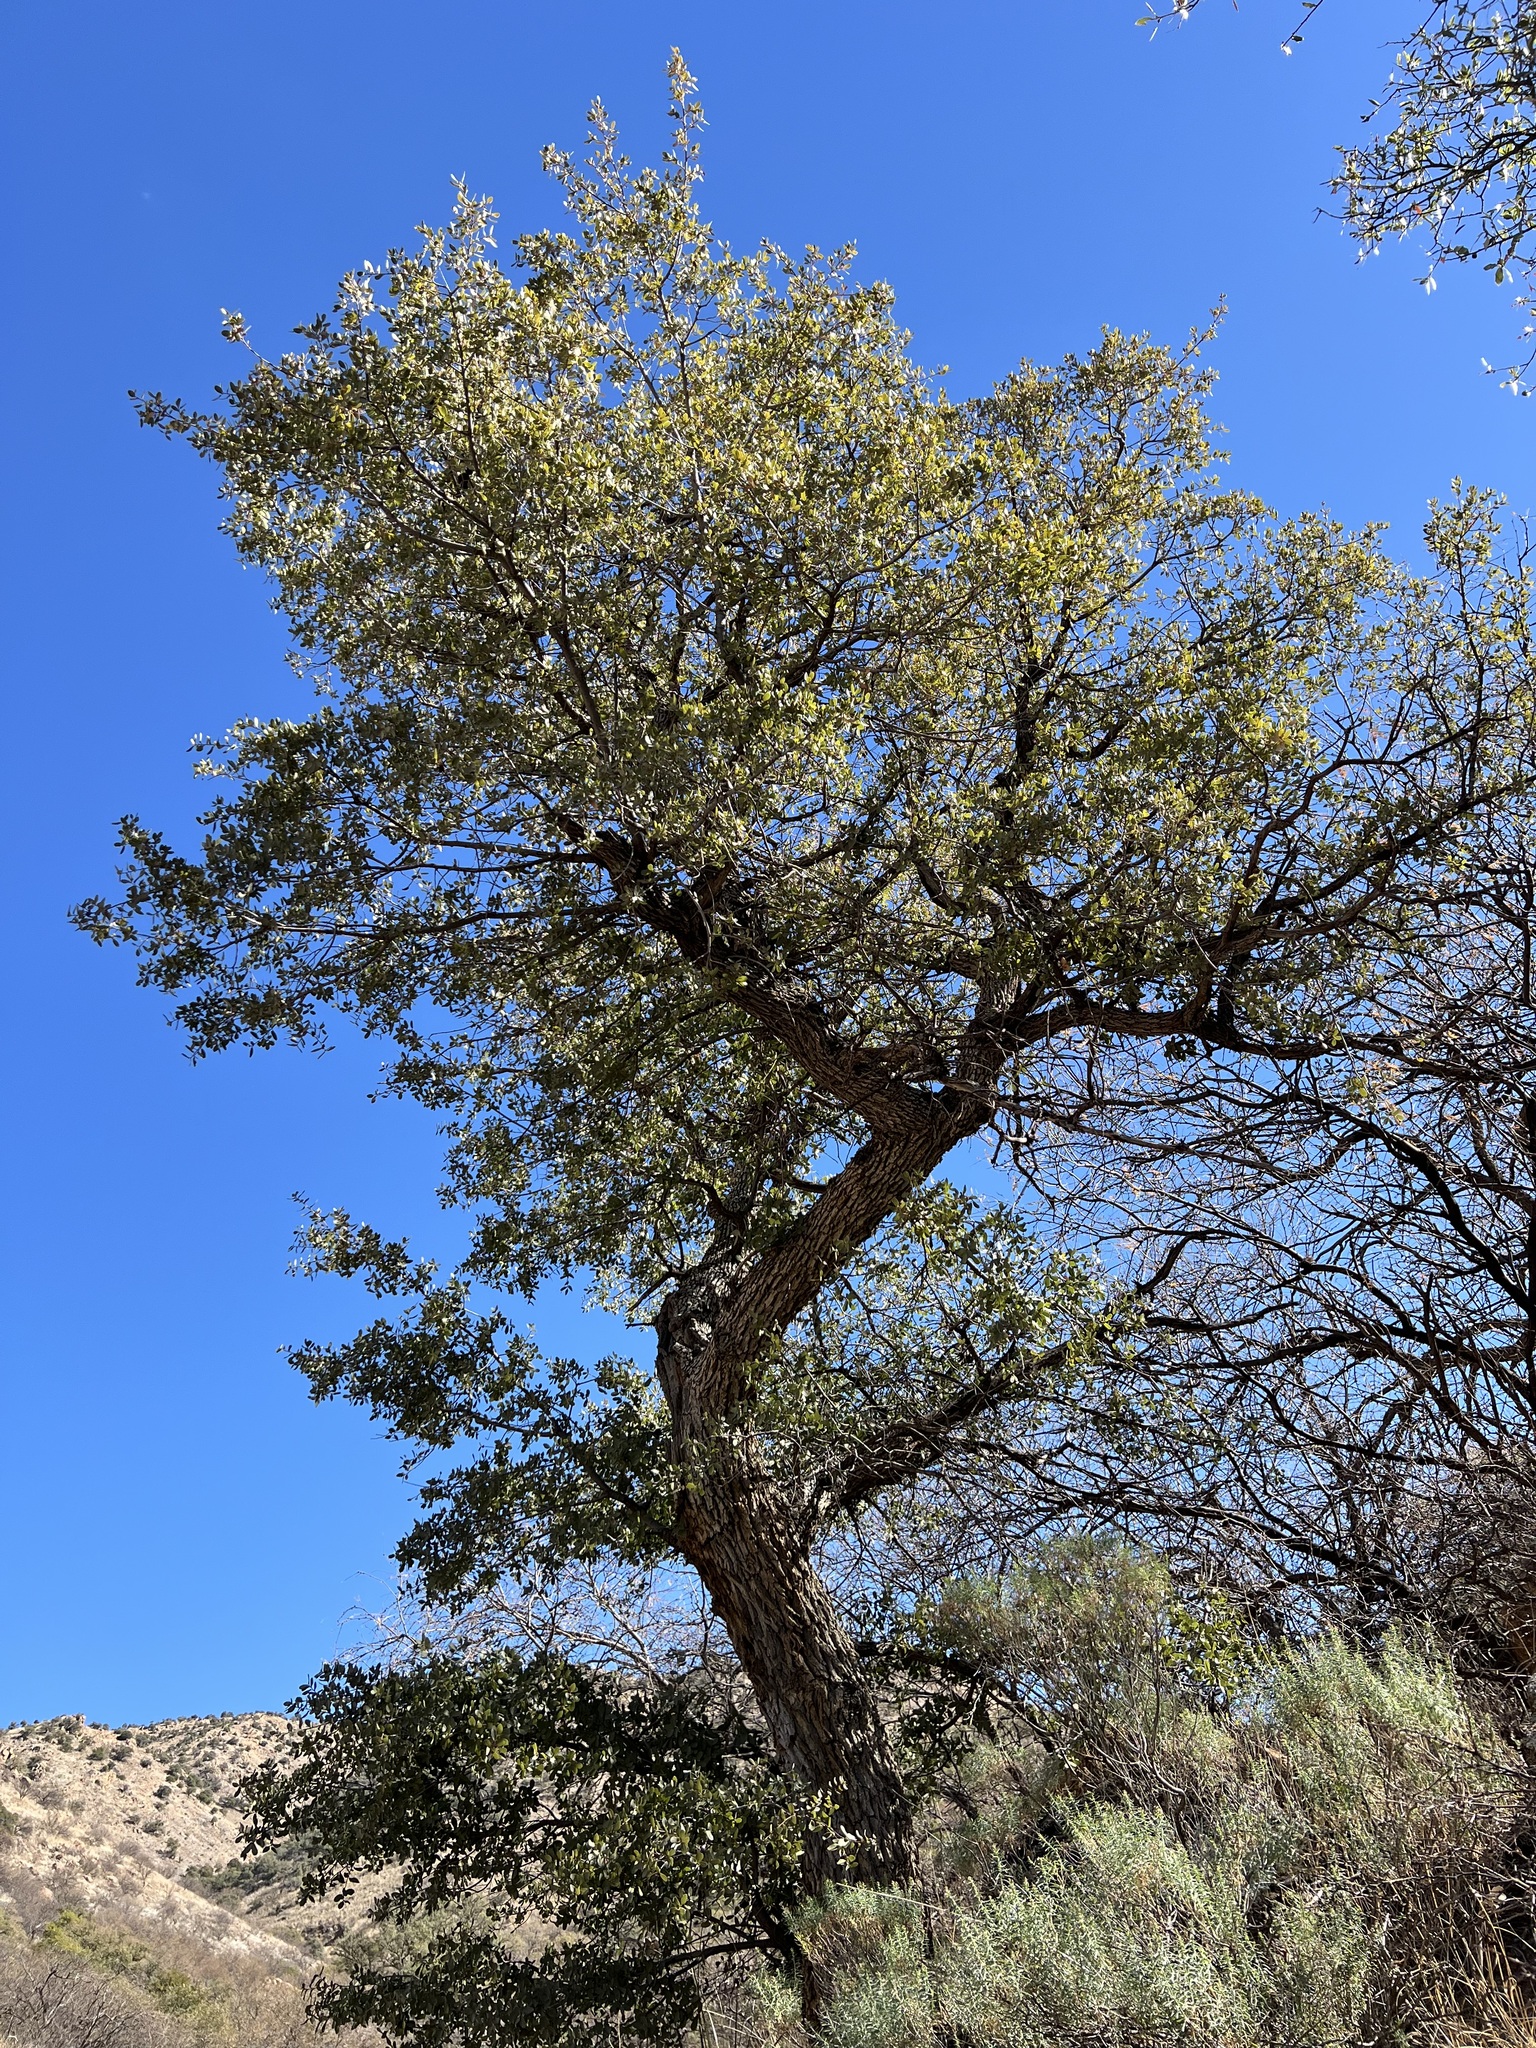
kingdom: Plantae
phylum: Tracheophyta
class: Magnoliopsida
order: Fagales
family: Fagaceae
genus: Quercus
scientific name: Quercus oblongifolia
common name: Mexican blue oak
